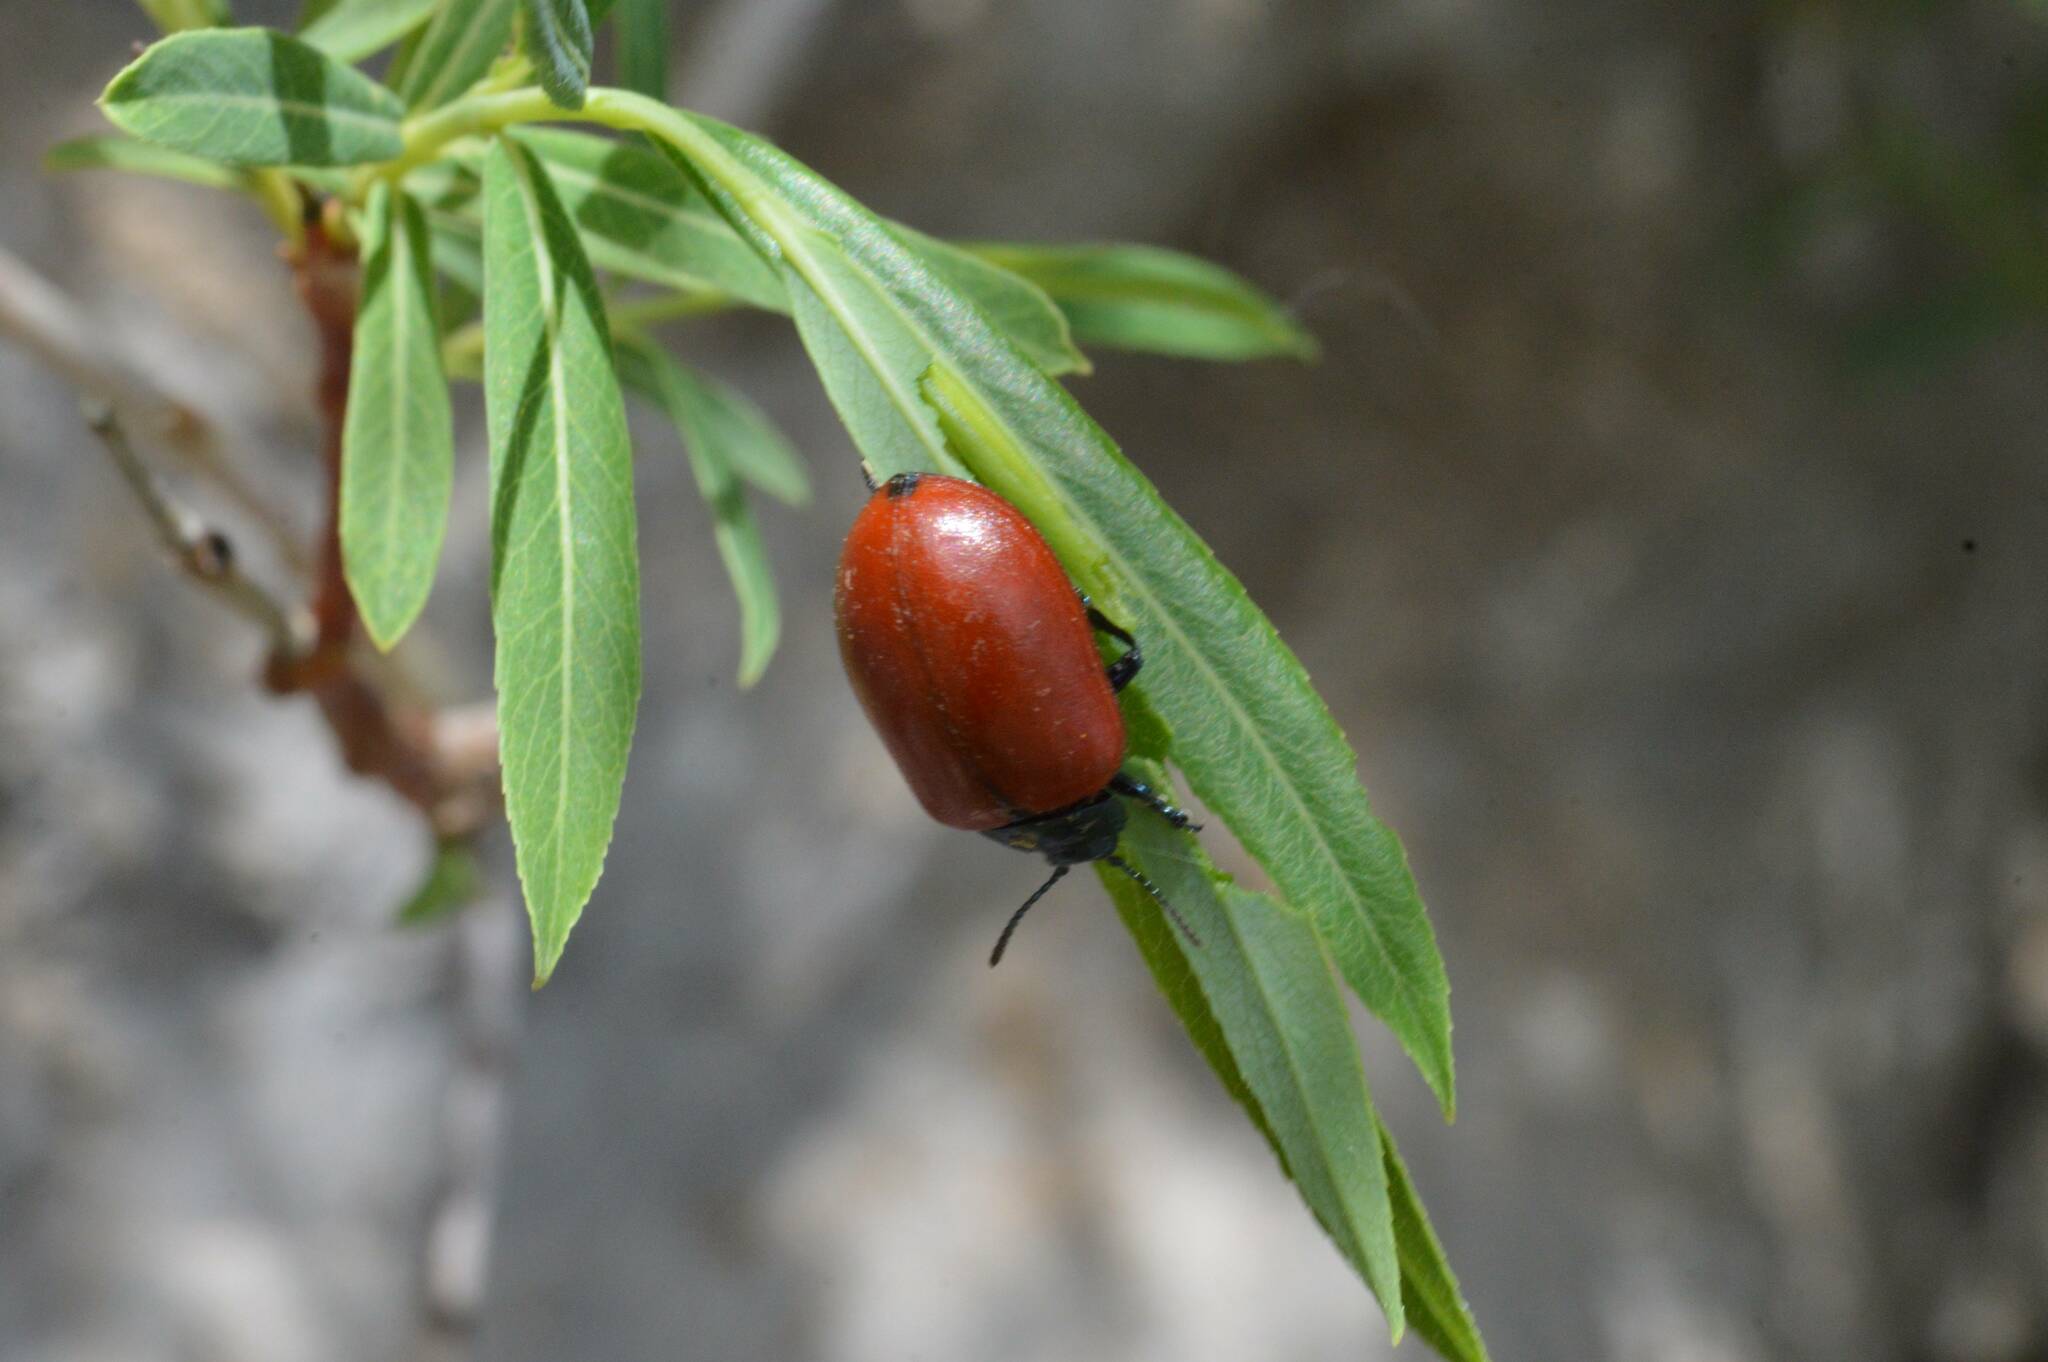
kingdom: Animalia
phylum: Arthropoda
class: Insecta
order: Coleoptera
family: Chrysomelidae
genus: Chrysomela
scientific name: Chrysomela populi
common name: Red poplar leaf beetle
